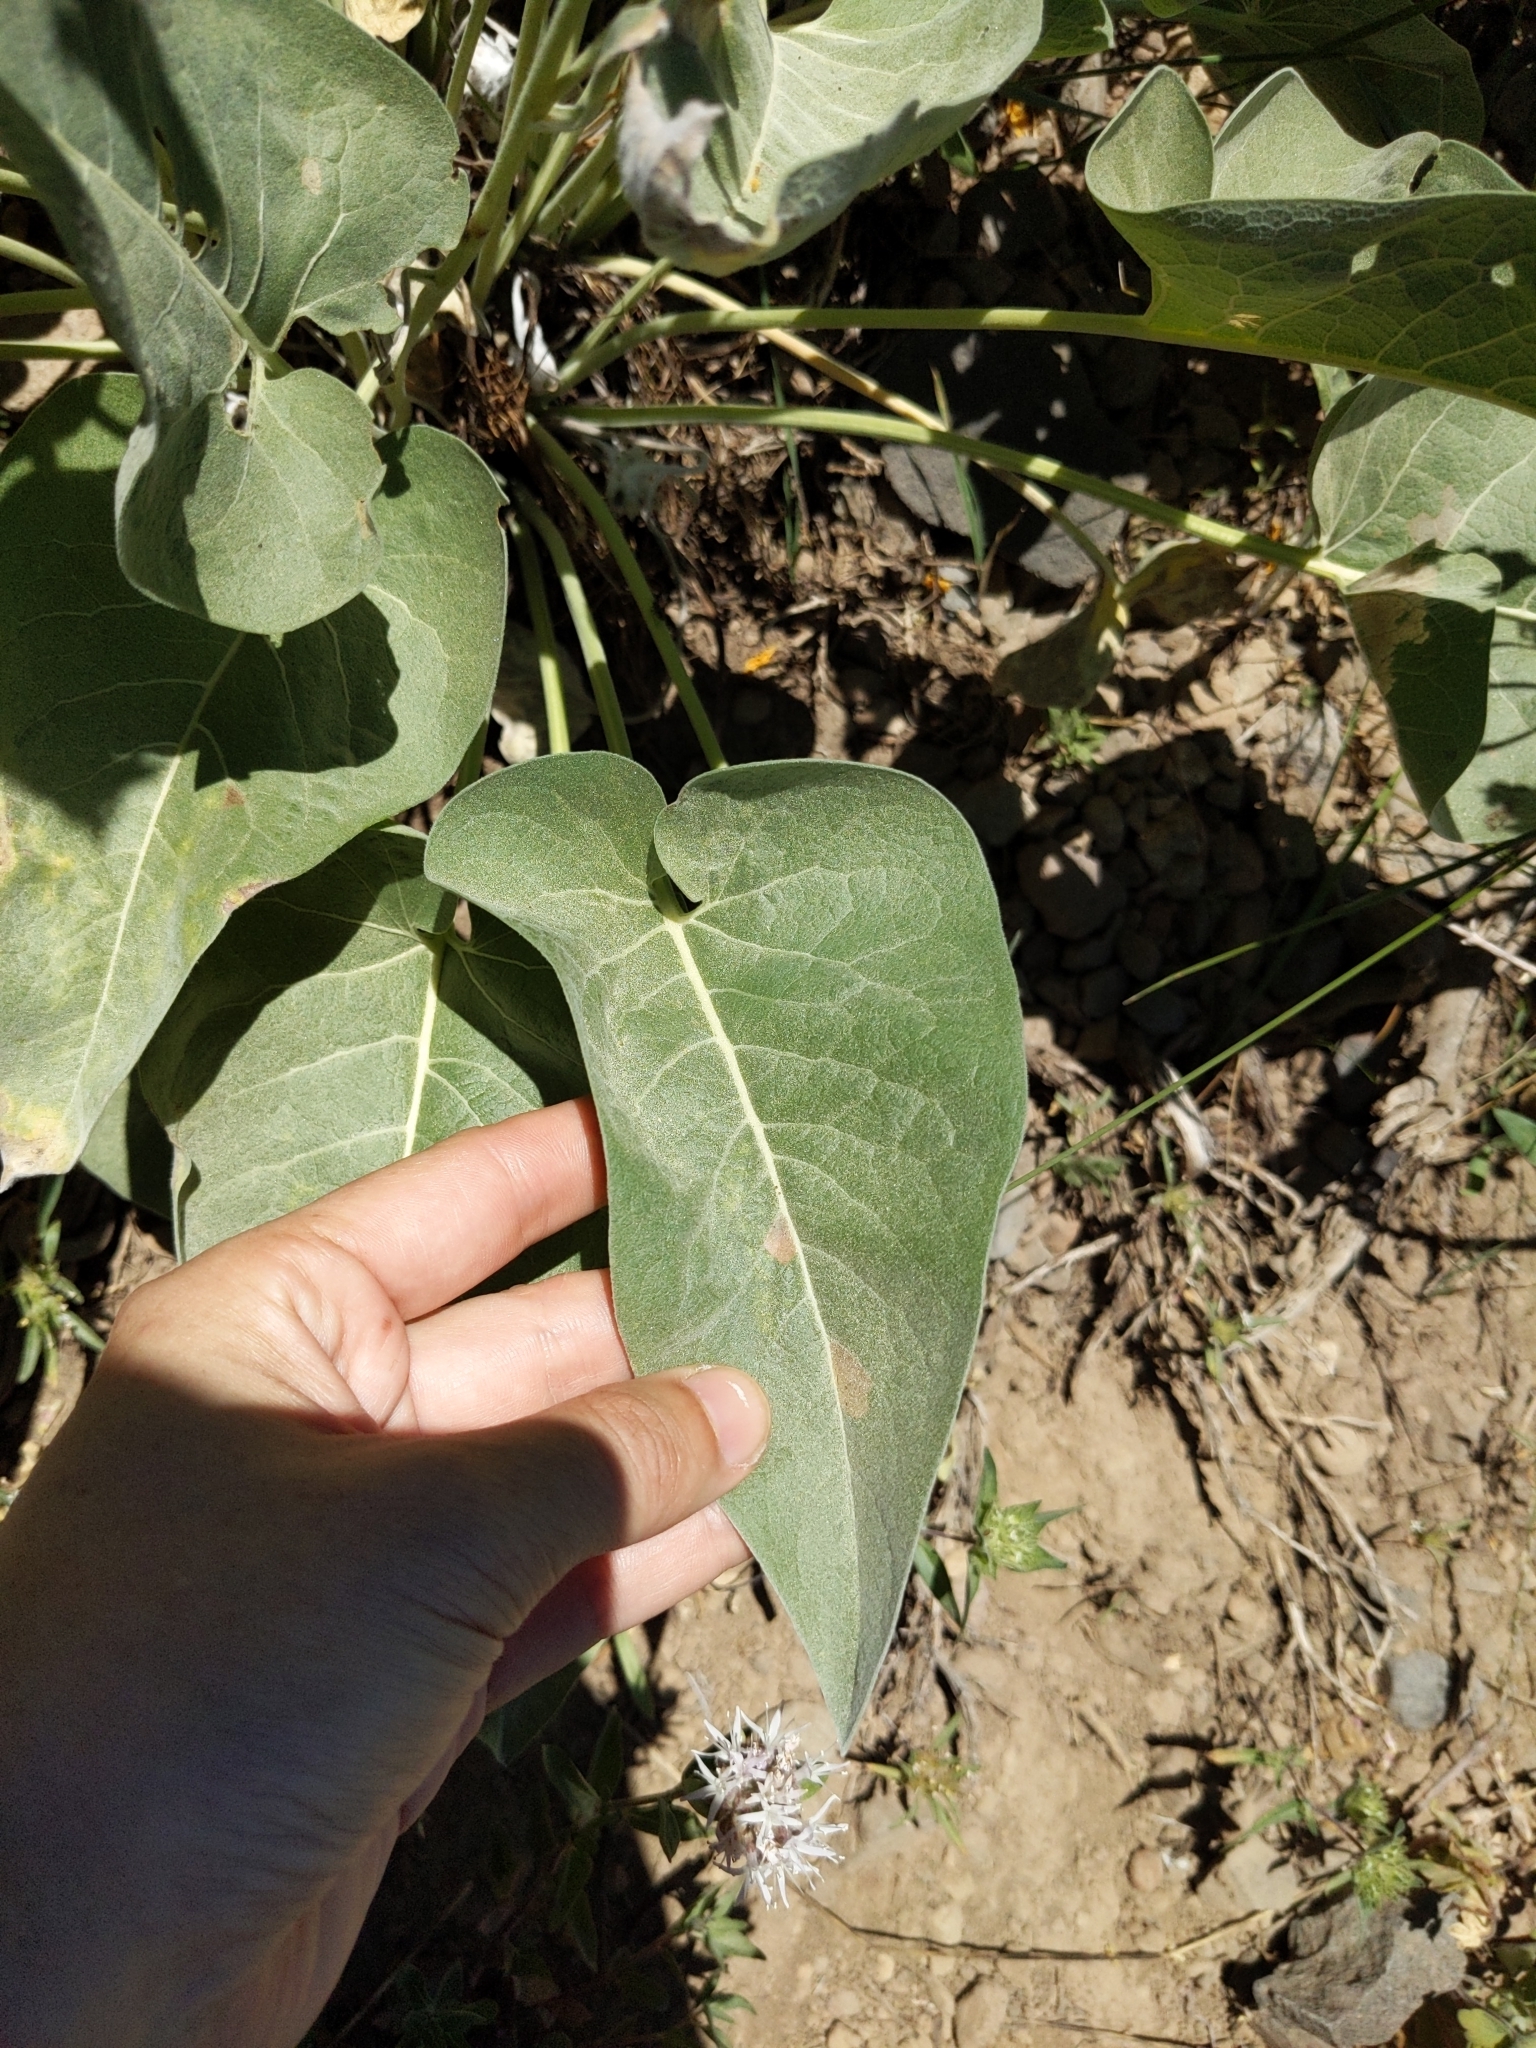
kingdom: Plantae
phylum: Tracheophyta
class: Magnoliopsida
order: Asterales
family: Asteraceae
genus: Wyethia
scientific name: Wyethia sagittata
